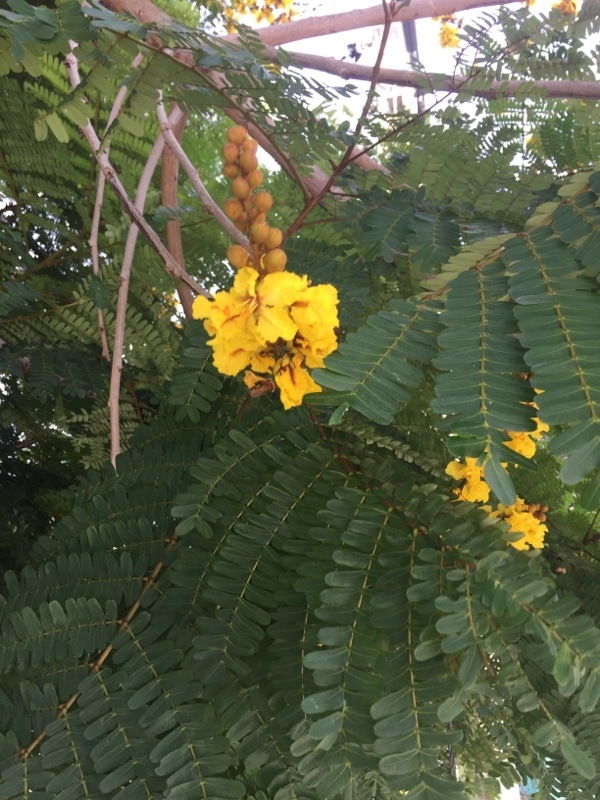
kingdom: Plantae
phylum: Tracheophyta
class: Magnoliopsida
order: Fabales
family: Fabaceae
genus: Peltophorum
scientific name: Peltophorum pterocarpum
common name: Yellow flame
